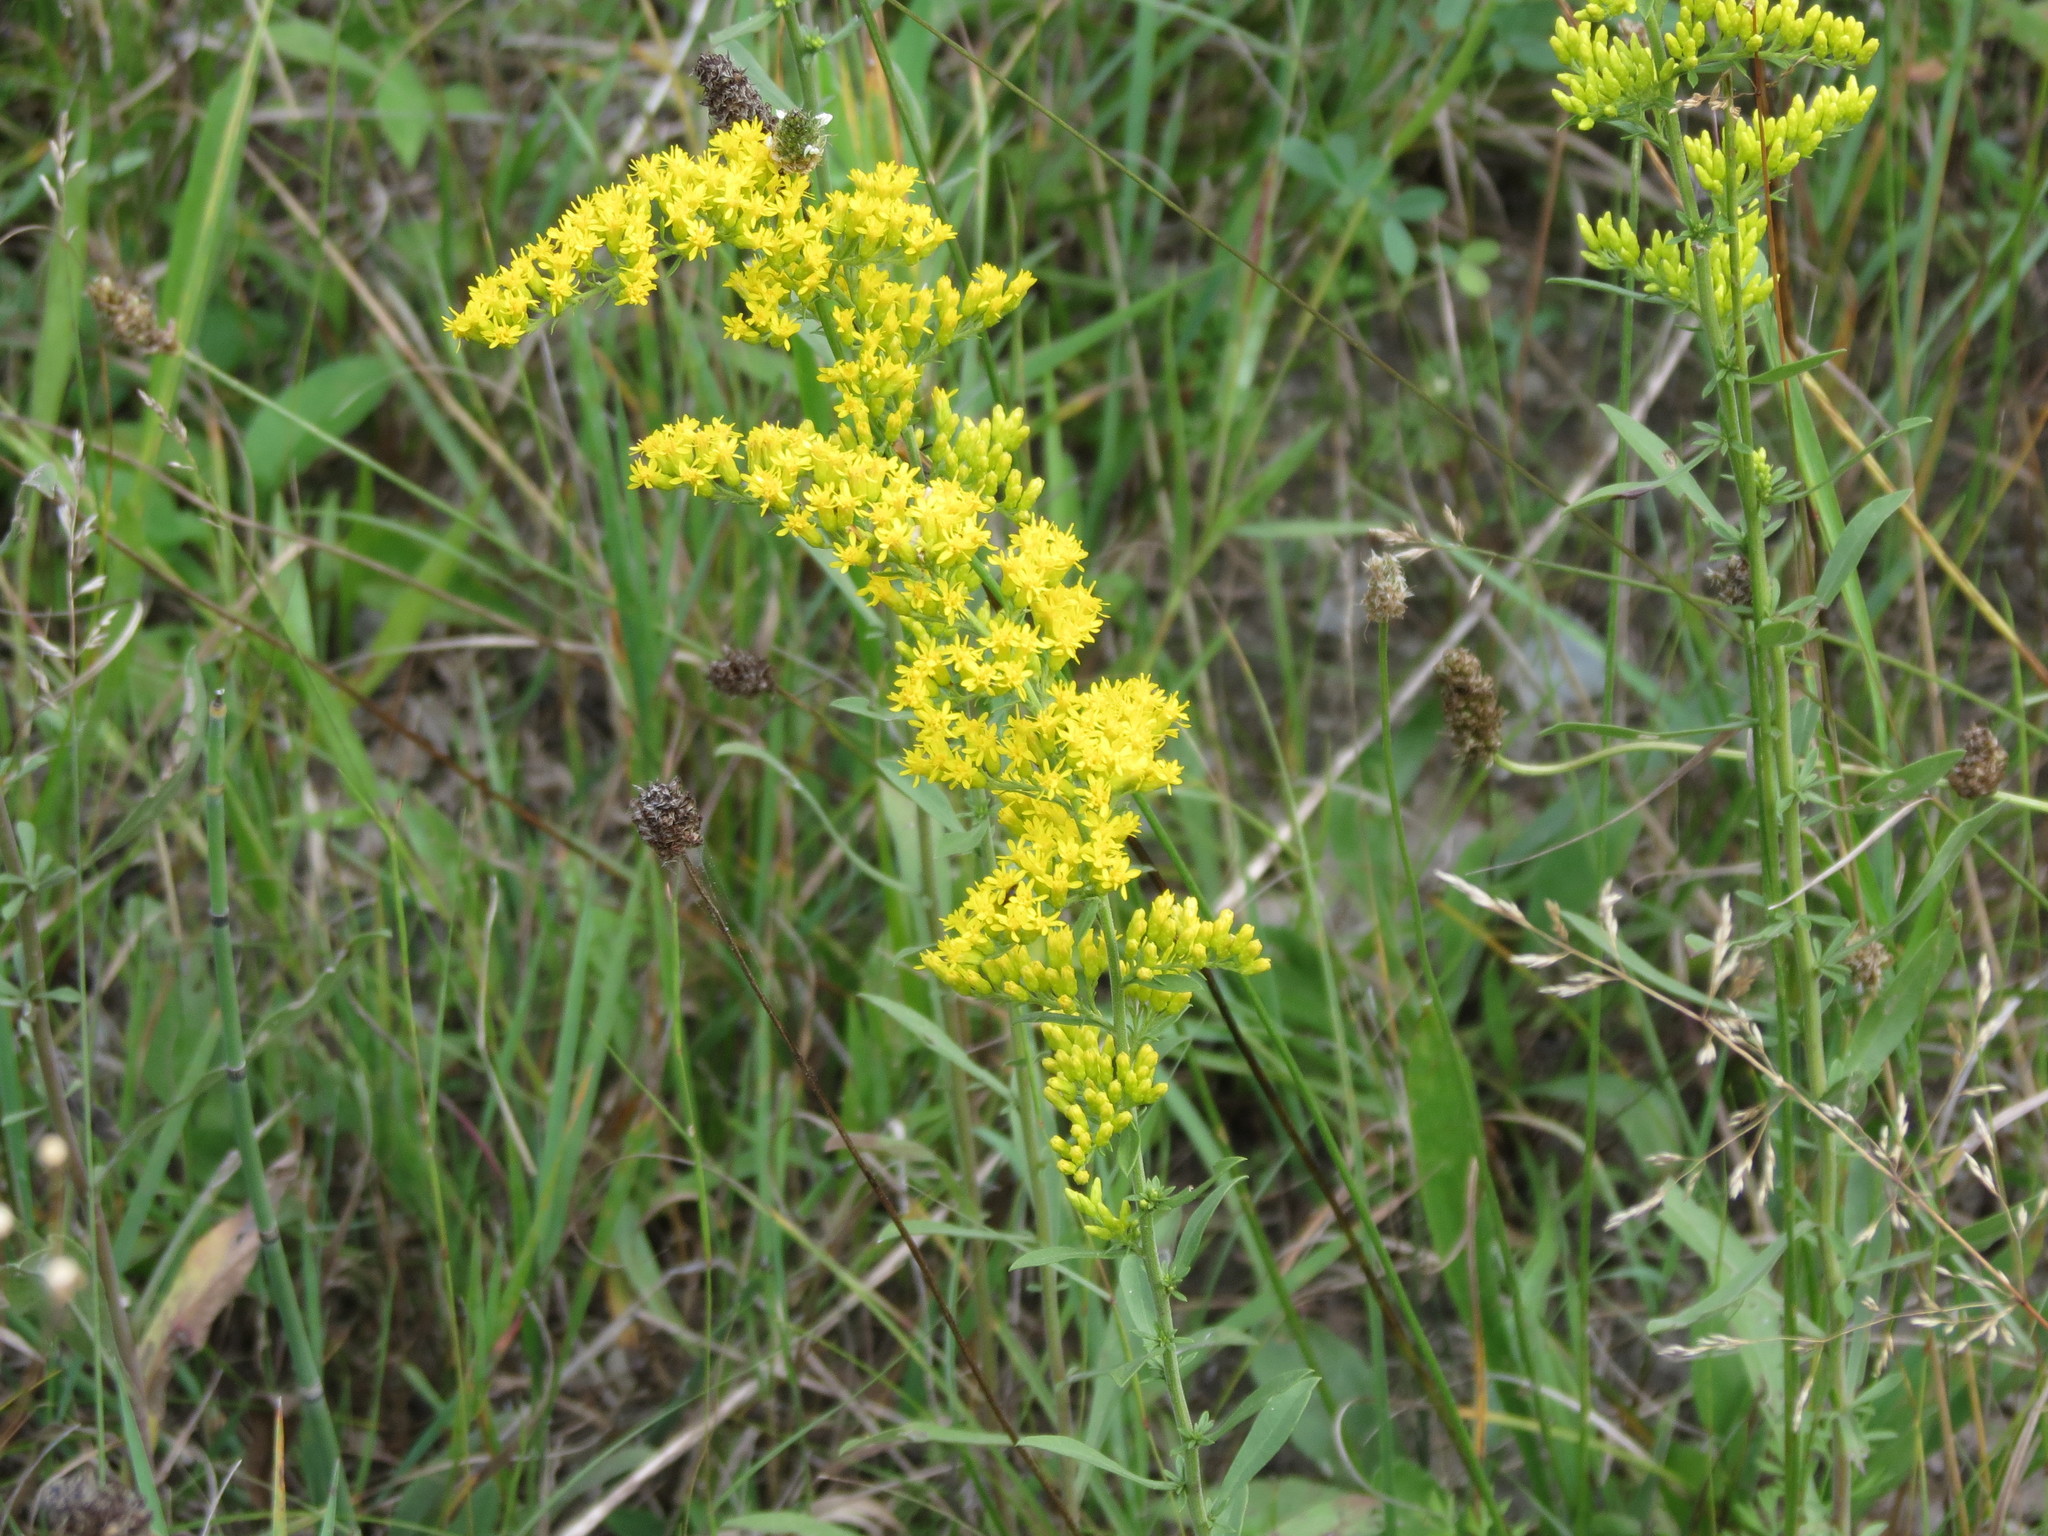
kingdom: Plantae
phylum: Tracheophyta
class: Magnoliopsida
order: Asterales
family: Asteraceae
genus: Solidago
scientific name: Solidago nemoralis
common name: Grey goldenrod
